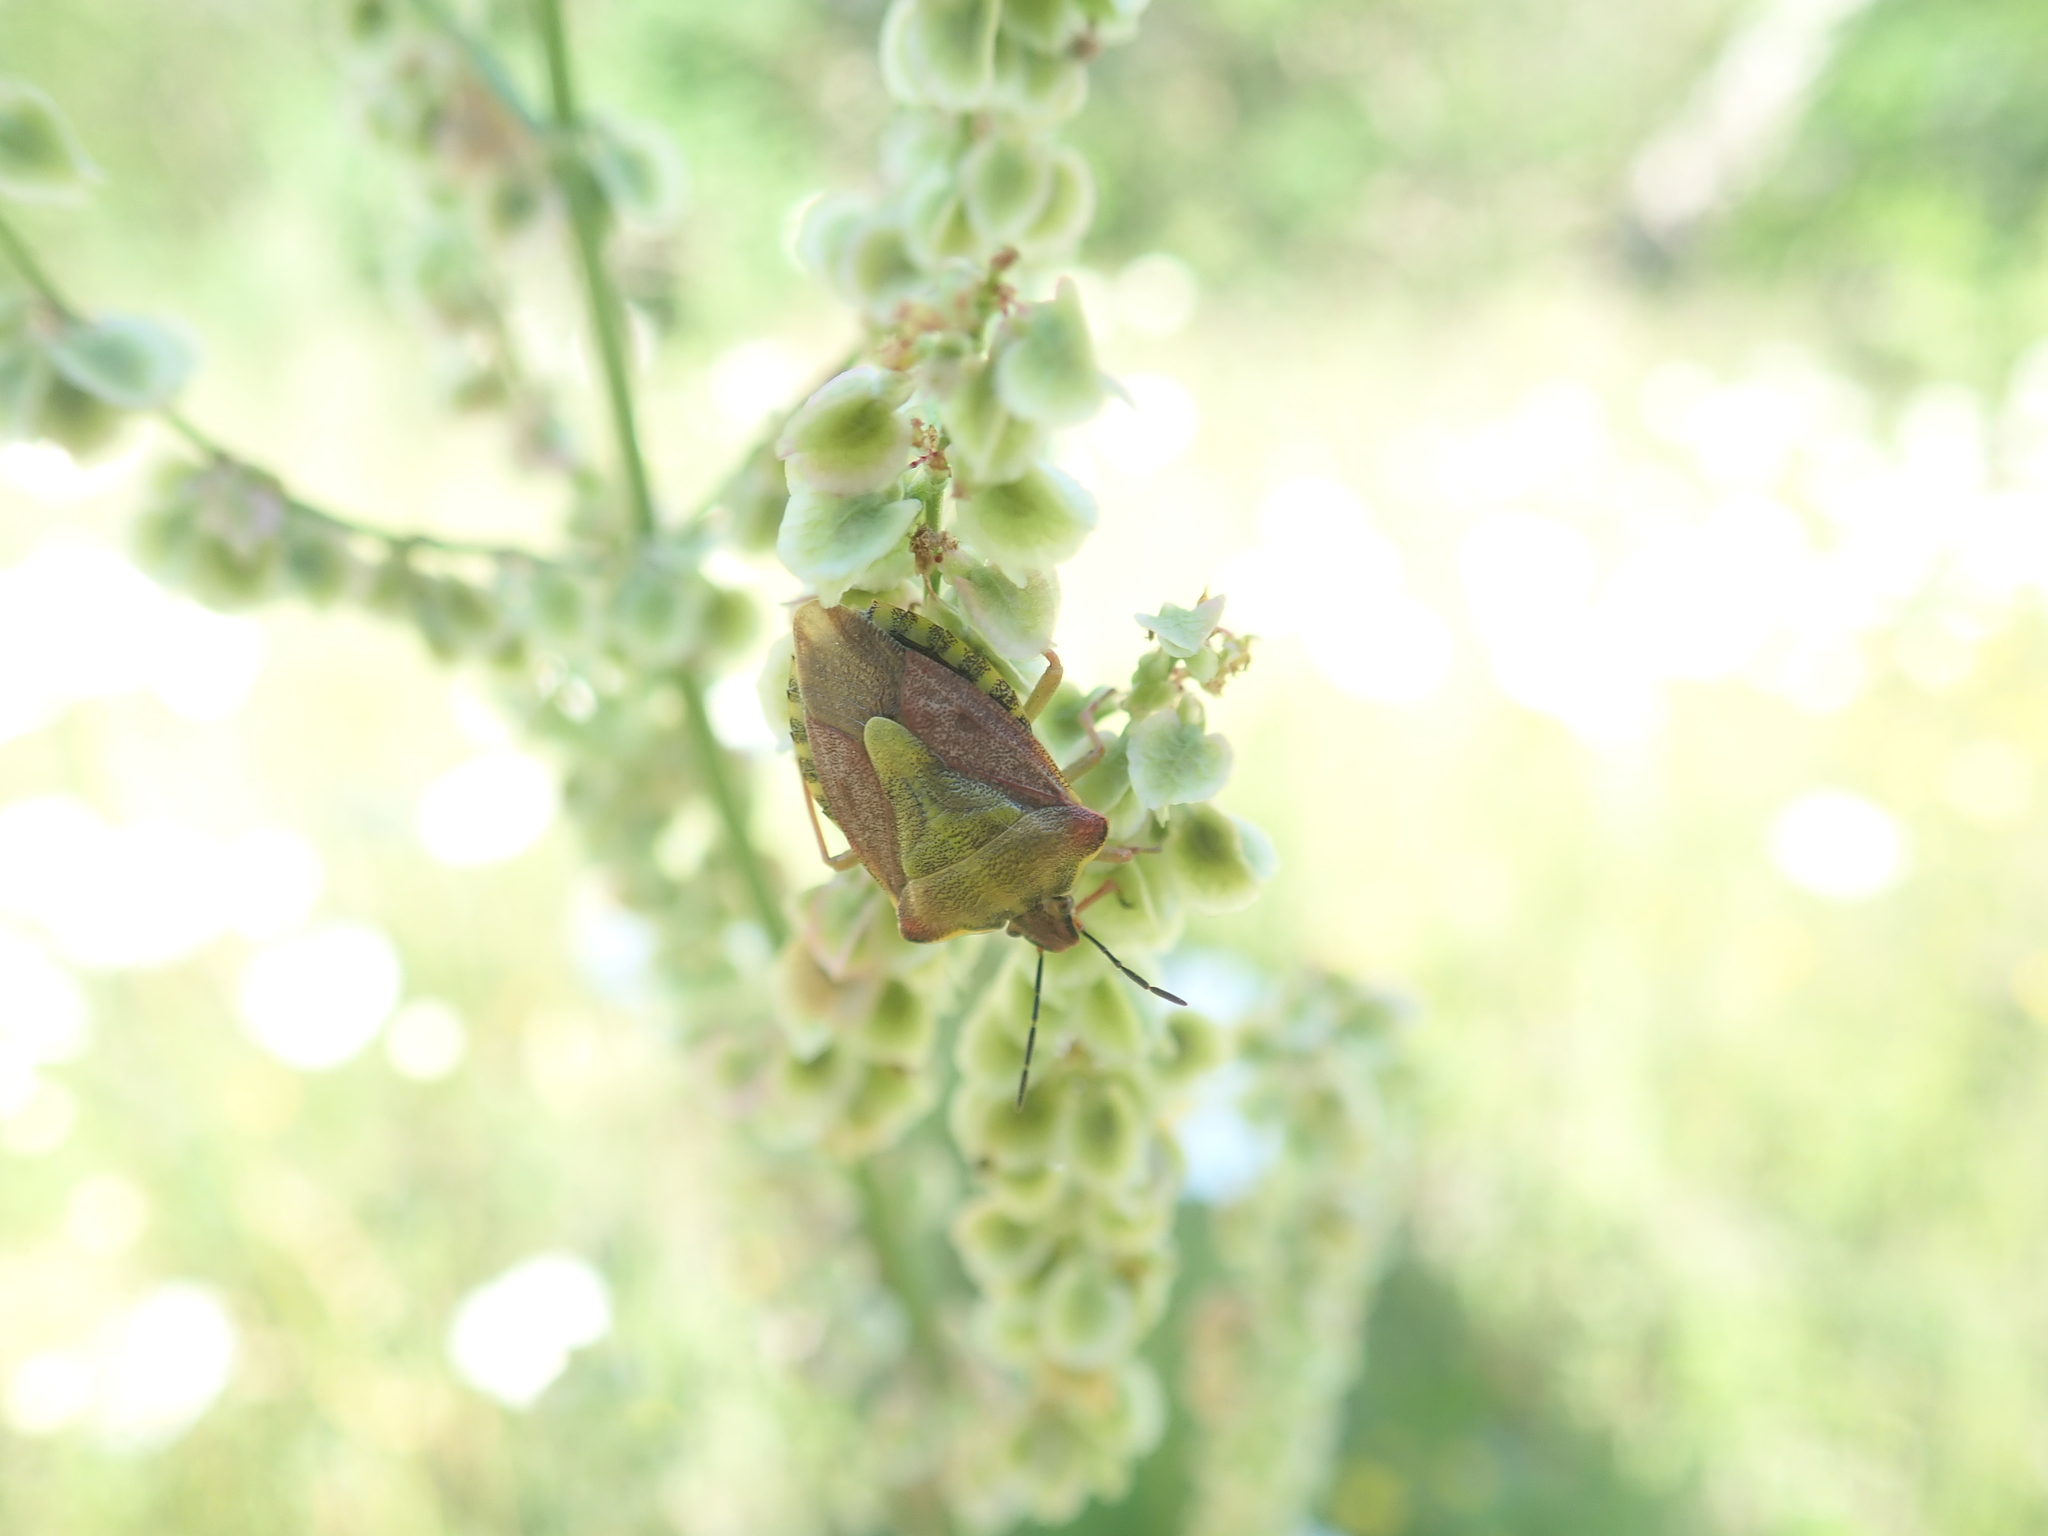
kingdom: Animalia
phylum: Arthropoda
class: Insecta
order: Hemiptera
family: Pentatomidae
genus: Carpocoris
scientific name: Carpocoris purpureipennis
